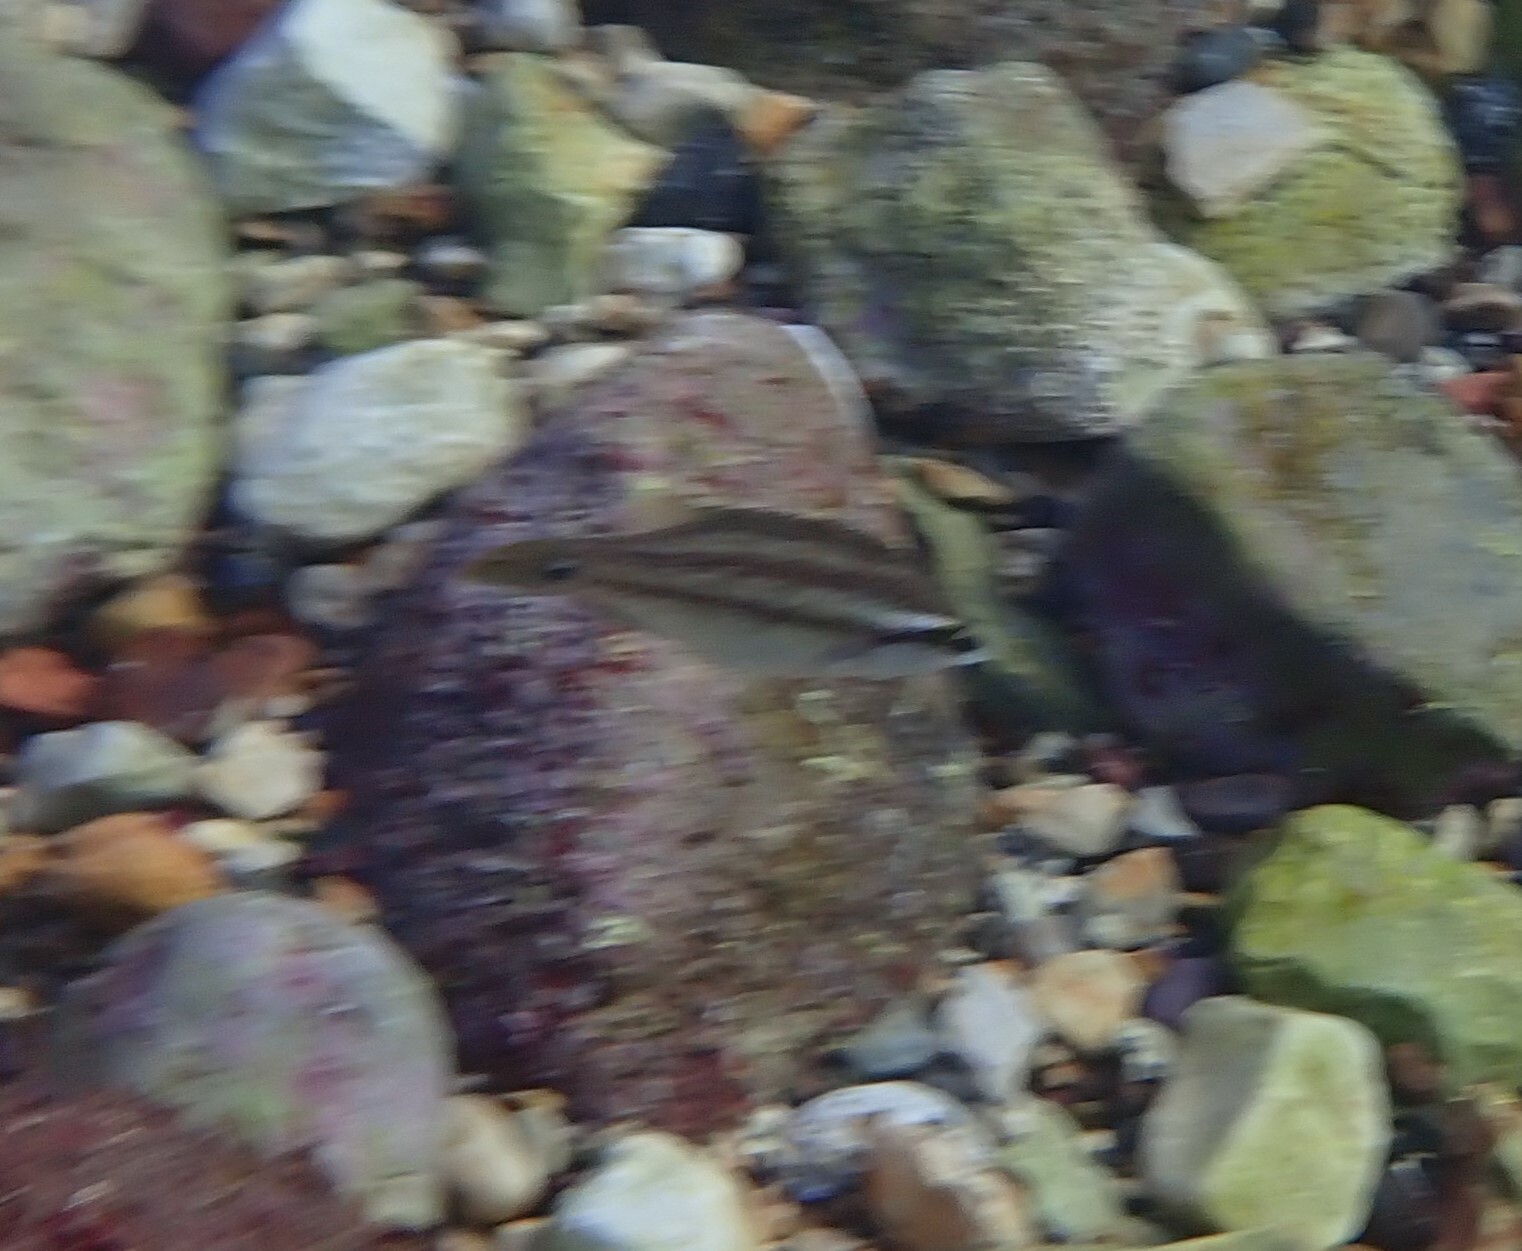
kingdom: Animalia
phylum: Chordata
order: Perciformes
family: Labridae
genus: Symphodus
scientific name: Symphodus tinca
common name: Peacock wrasse
